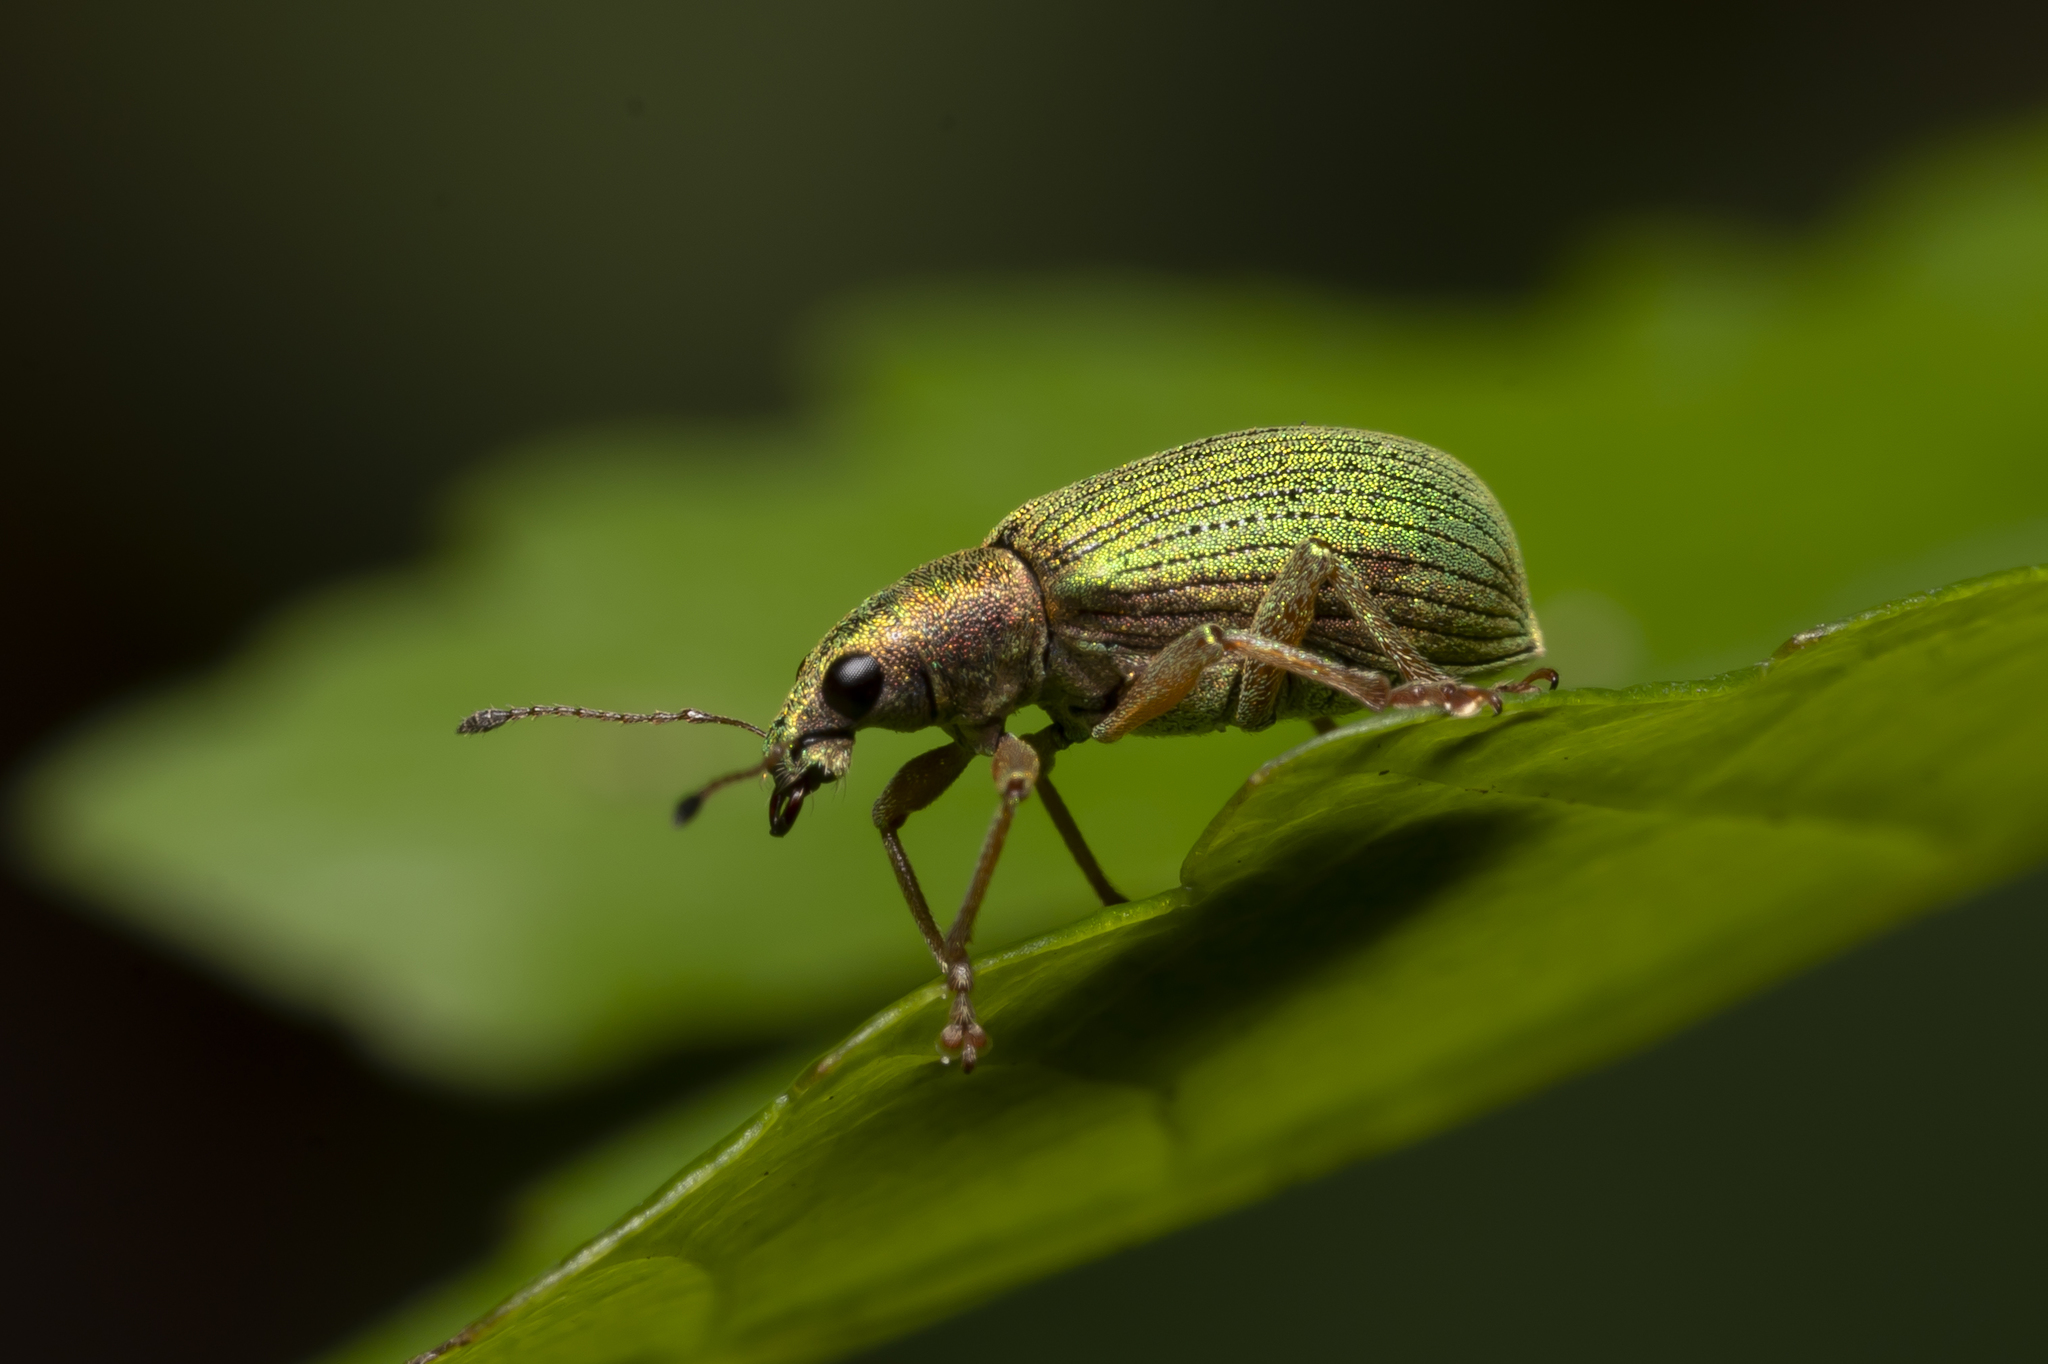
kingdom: Animalia
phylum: Arthropoda
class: Insecta
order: Coleoptera
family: Curculionidae
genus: Polydrusus
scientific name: Polydrusus formosus
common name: Weevil
